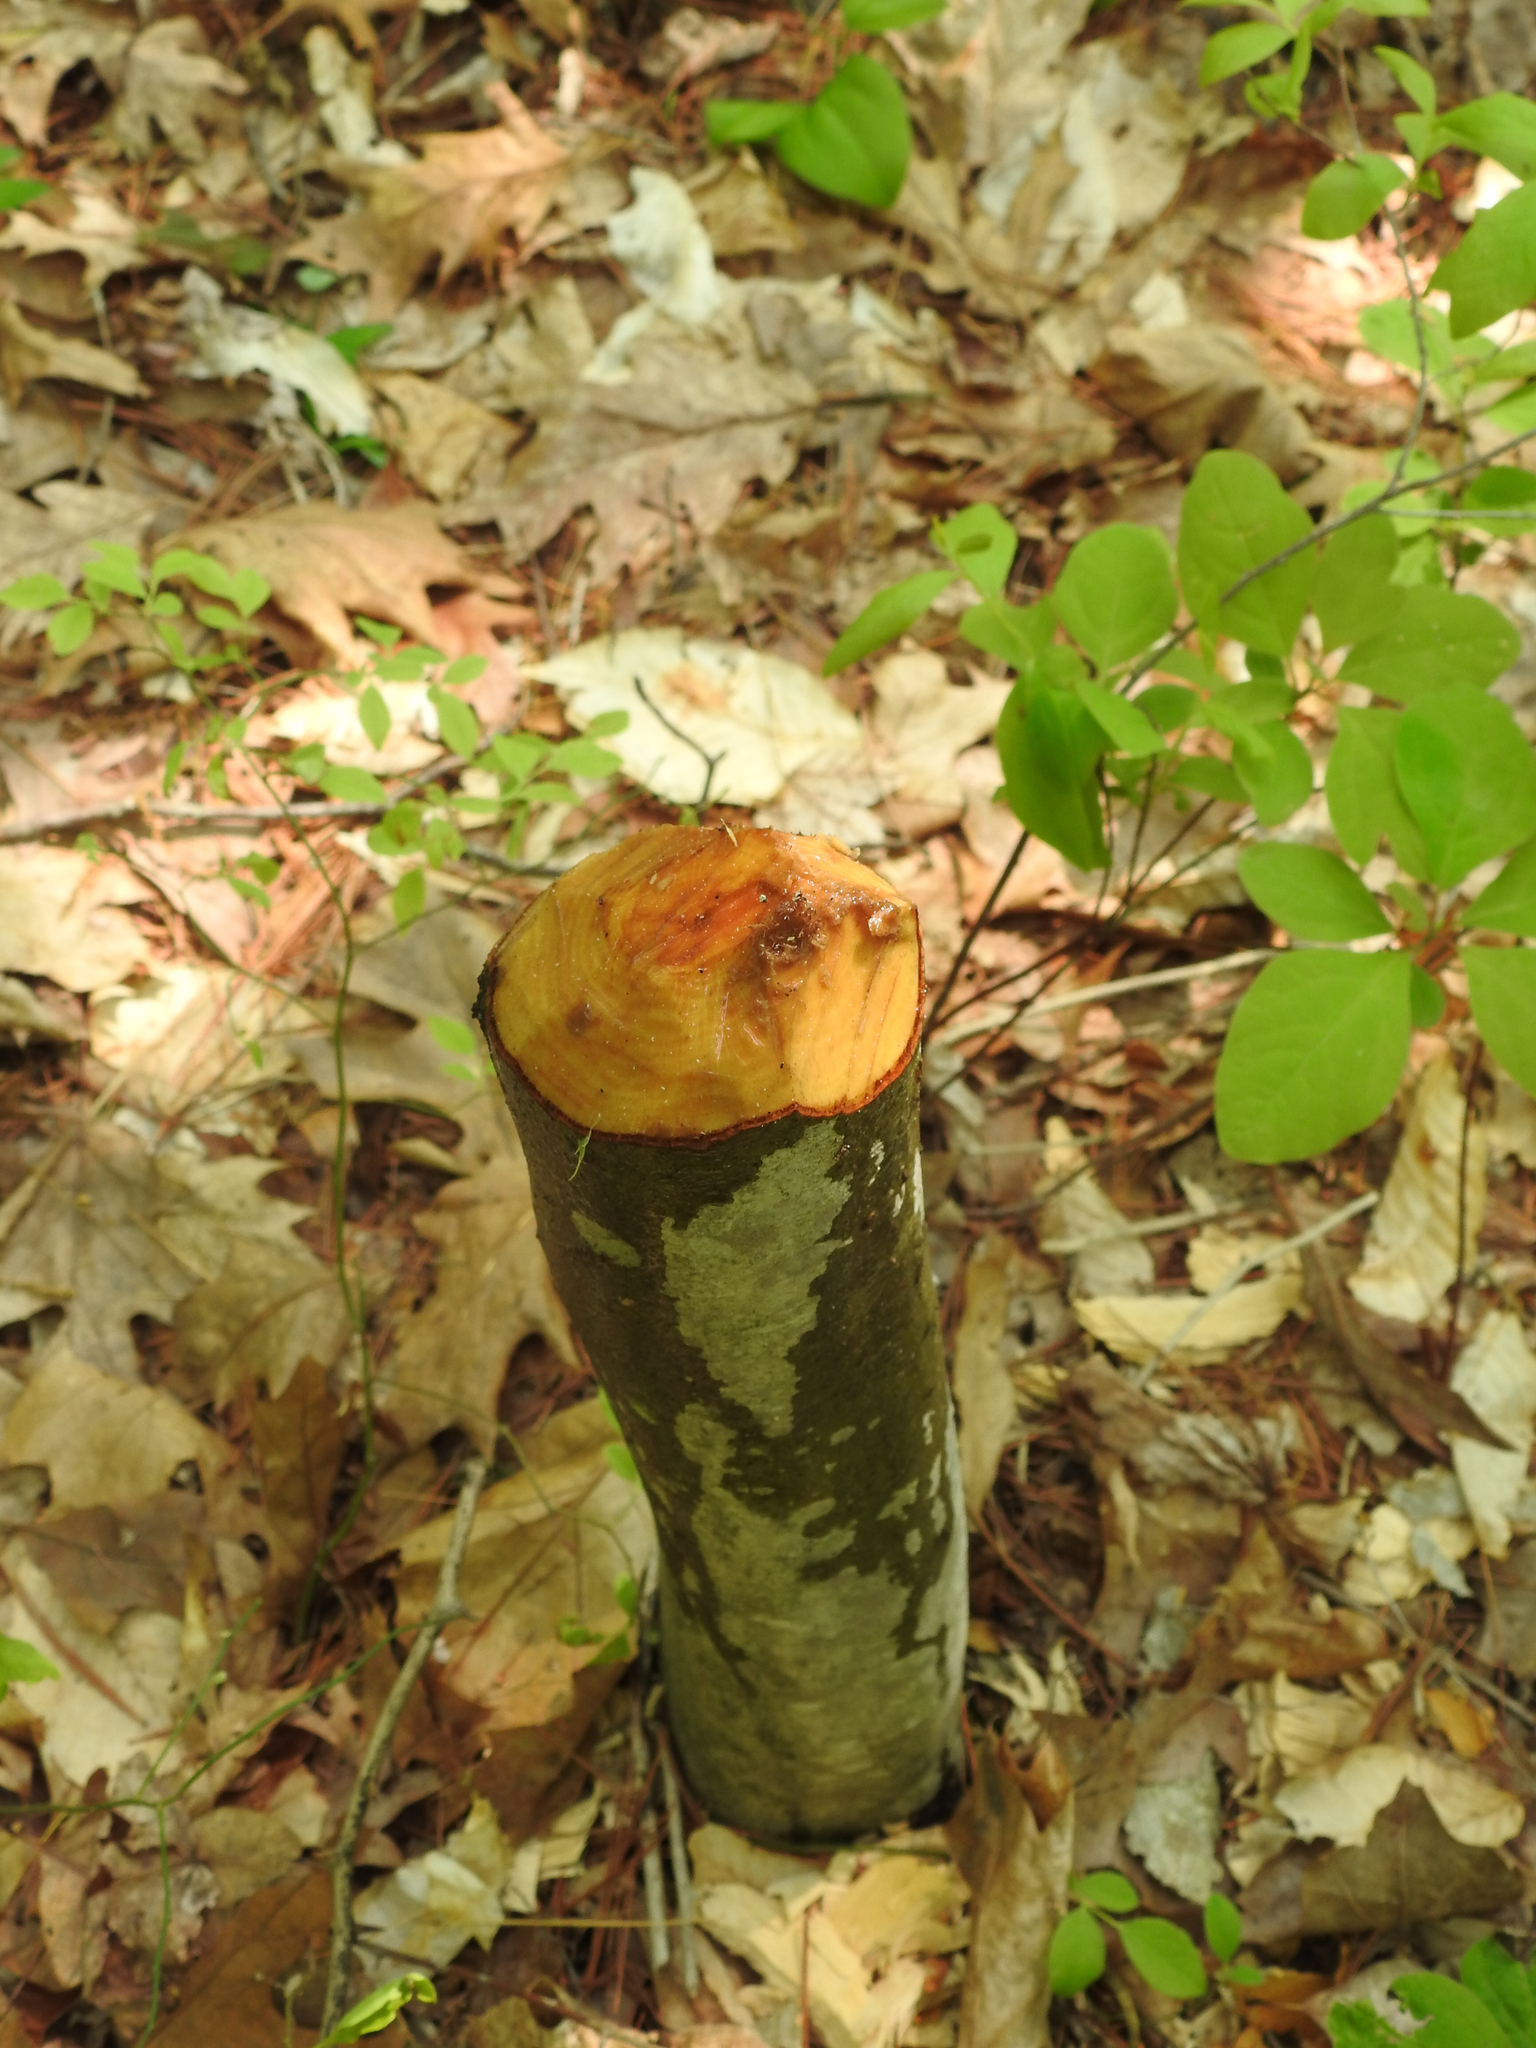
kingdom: Animalia
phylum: Chordata
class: Mammalia
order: Rodentia
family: Castoridae
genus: Castor
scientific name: Castor canadensis
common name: American beaver
